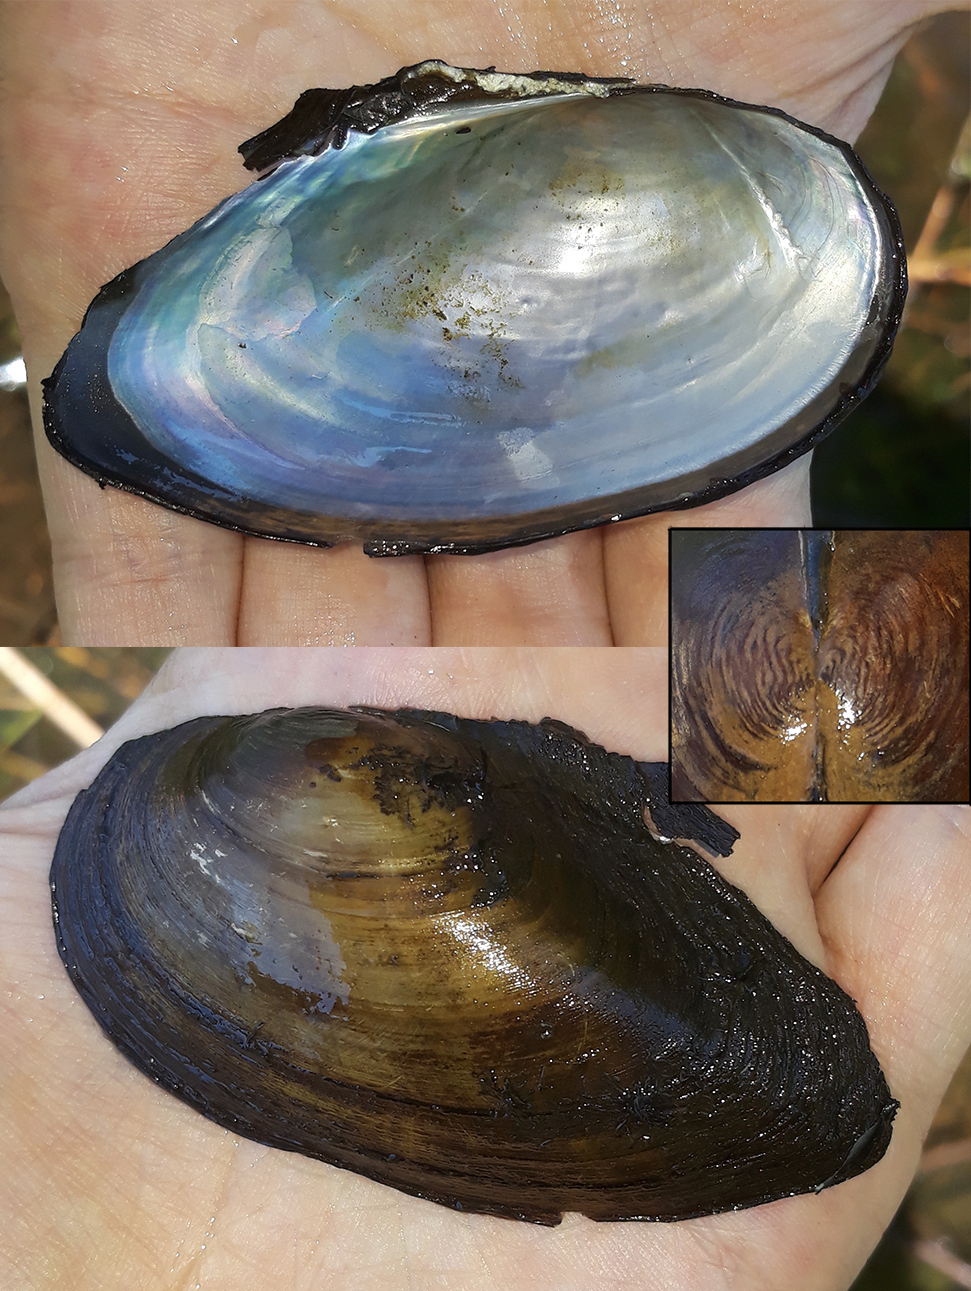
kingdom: Animalia
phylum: Mollusca
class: Bivalvia
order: Unionida
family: Unionidae
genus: Anodonta
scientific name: Anodonta anatina
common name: Duck mussel
